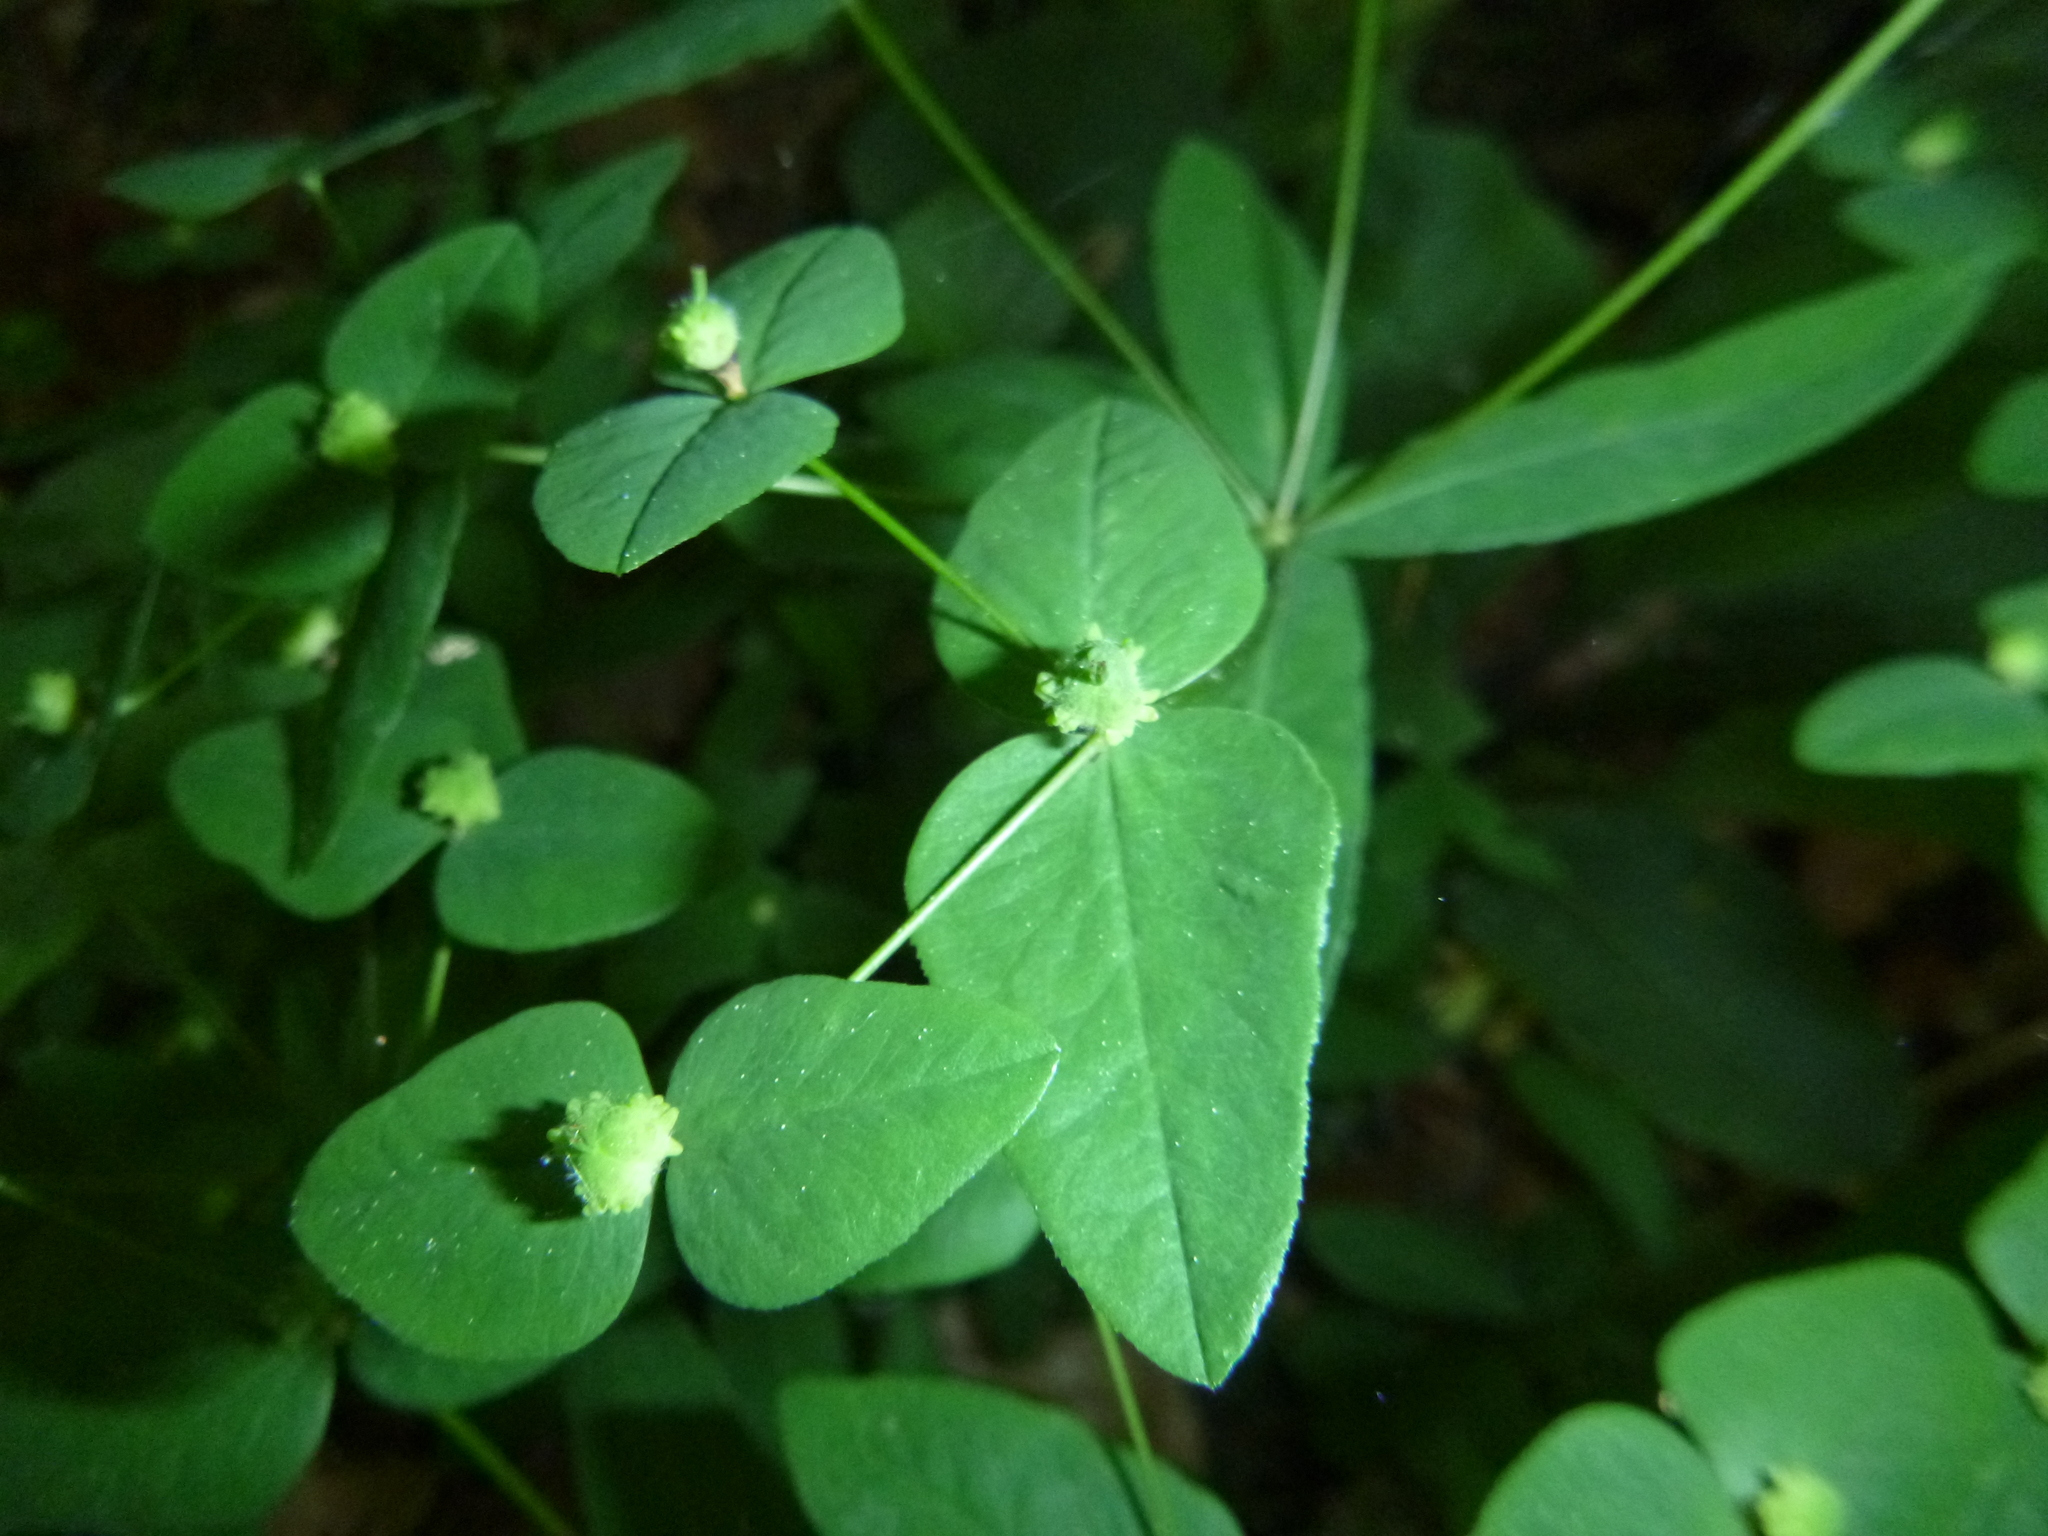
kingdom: Plantae
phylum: Tracheophyta
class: Magnoliopsida
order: Malpighiales
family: Euphorbiaceae
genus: Euphorbia
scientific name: Euphorbia dulcis
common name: Sweet spurge
